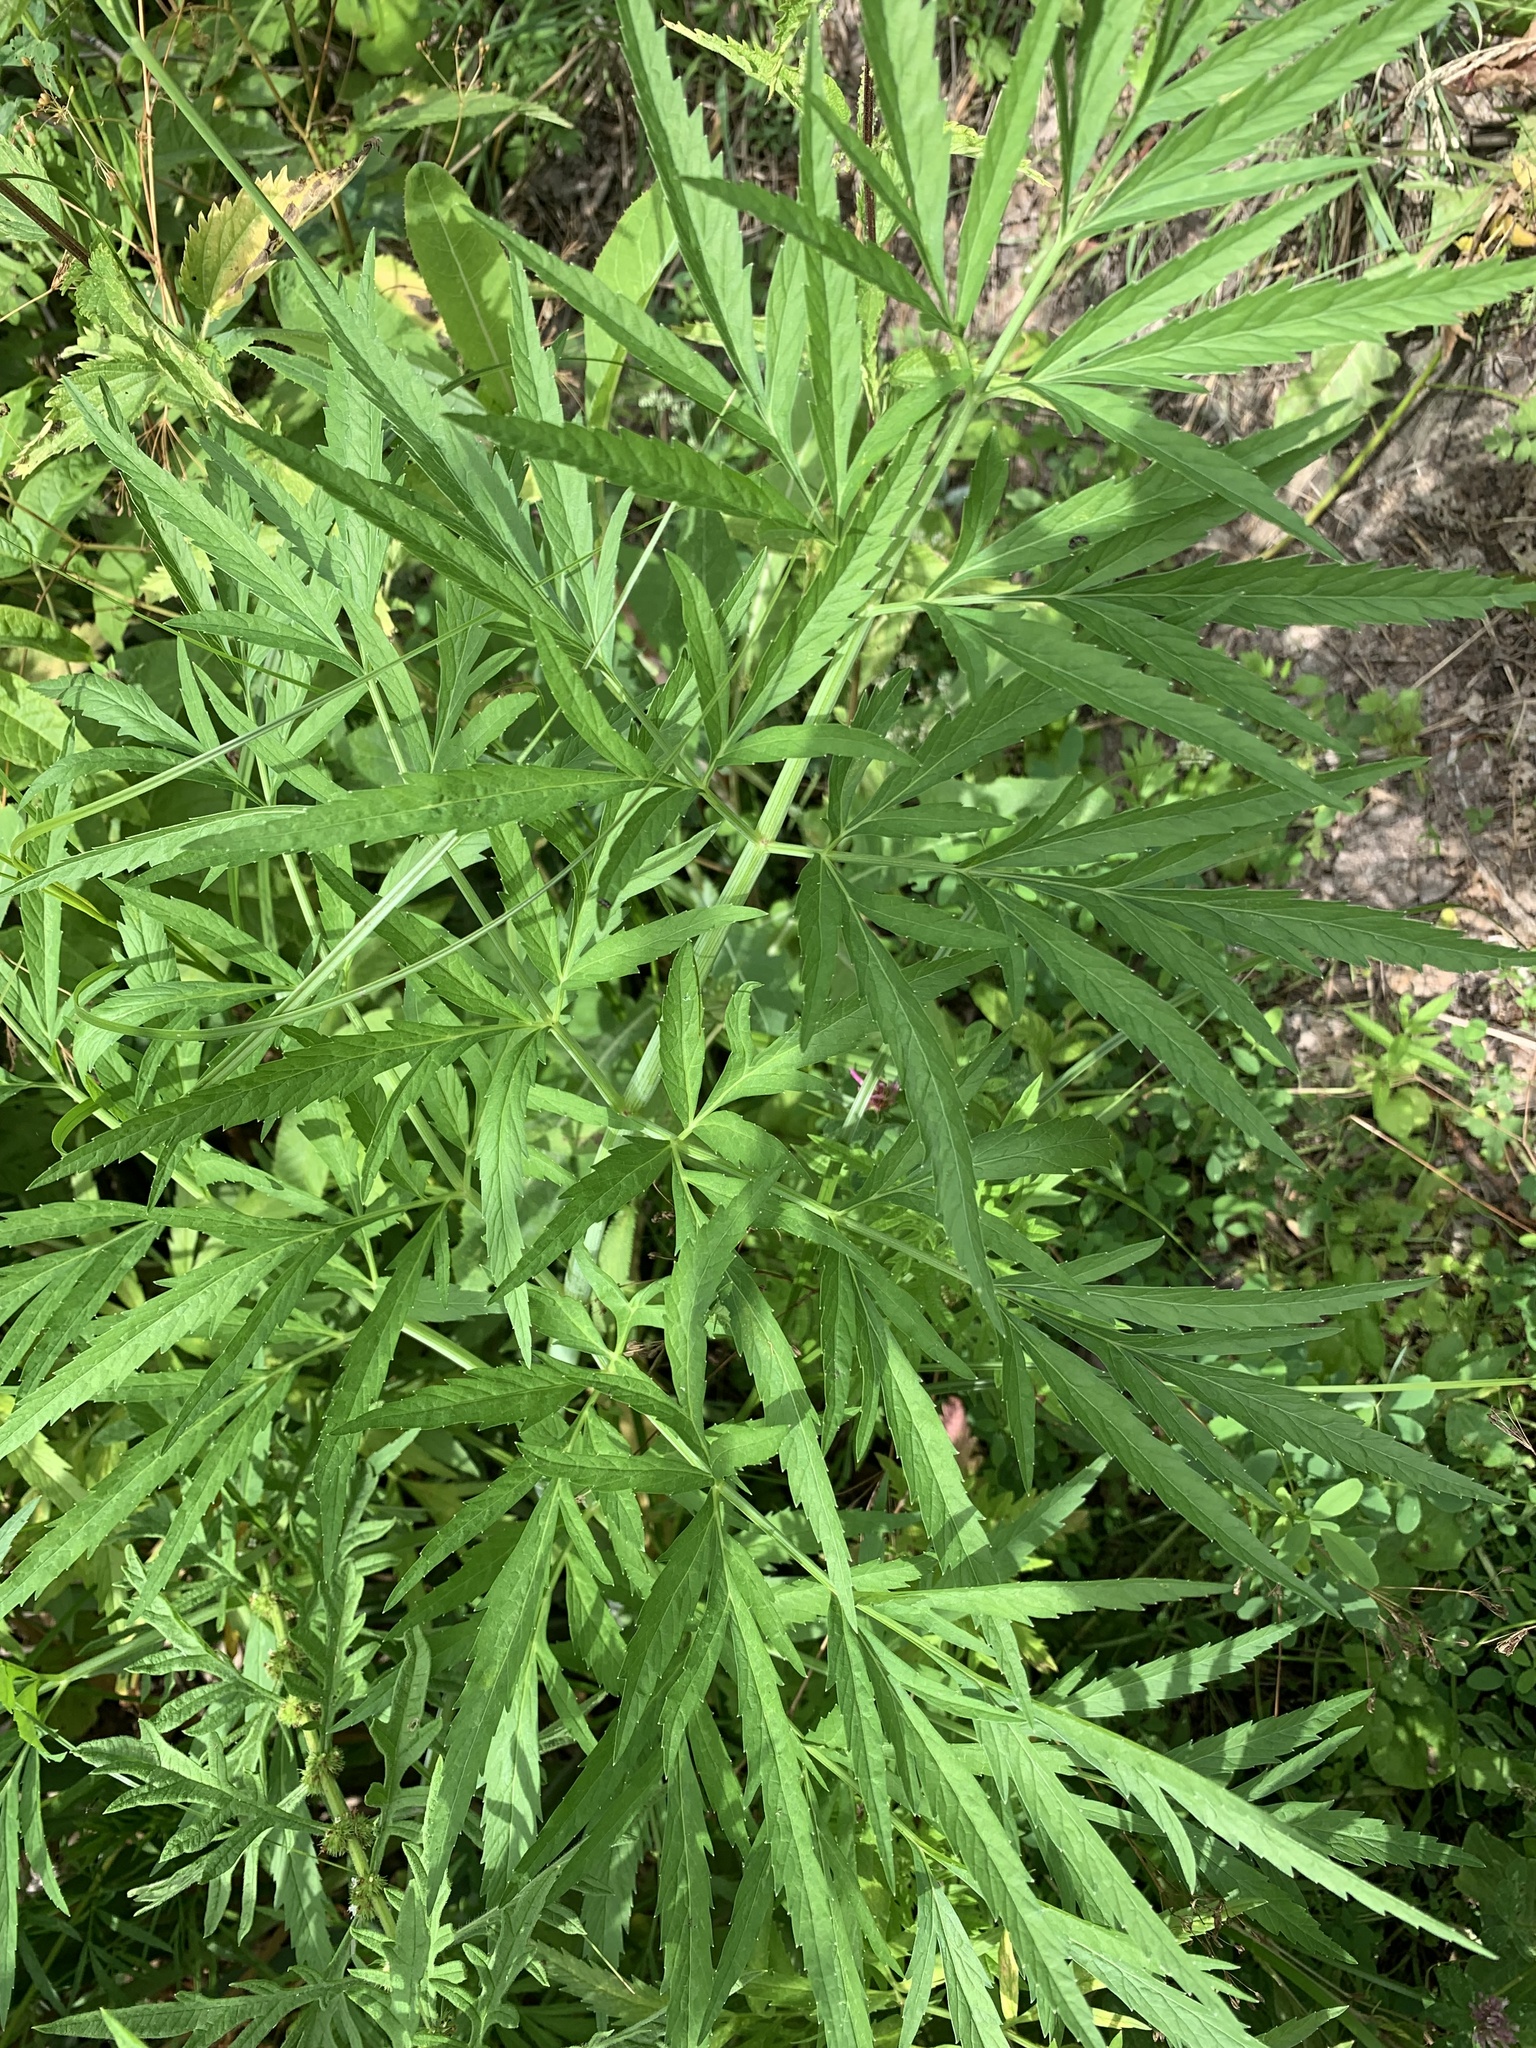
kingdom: Plantae
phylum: Tracheophyta
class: Magnoliopsida
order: Apiales
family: Apiaceae
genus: Cicuta
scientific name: Cicuta virosa
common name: Cowbane
